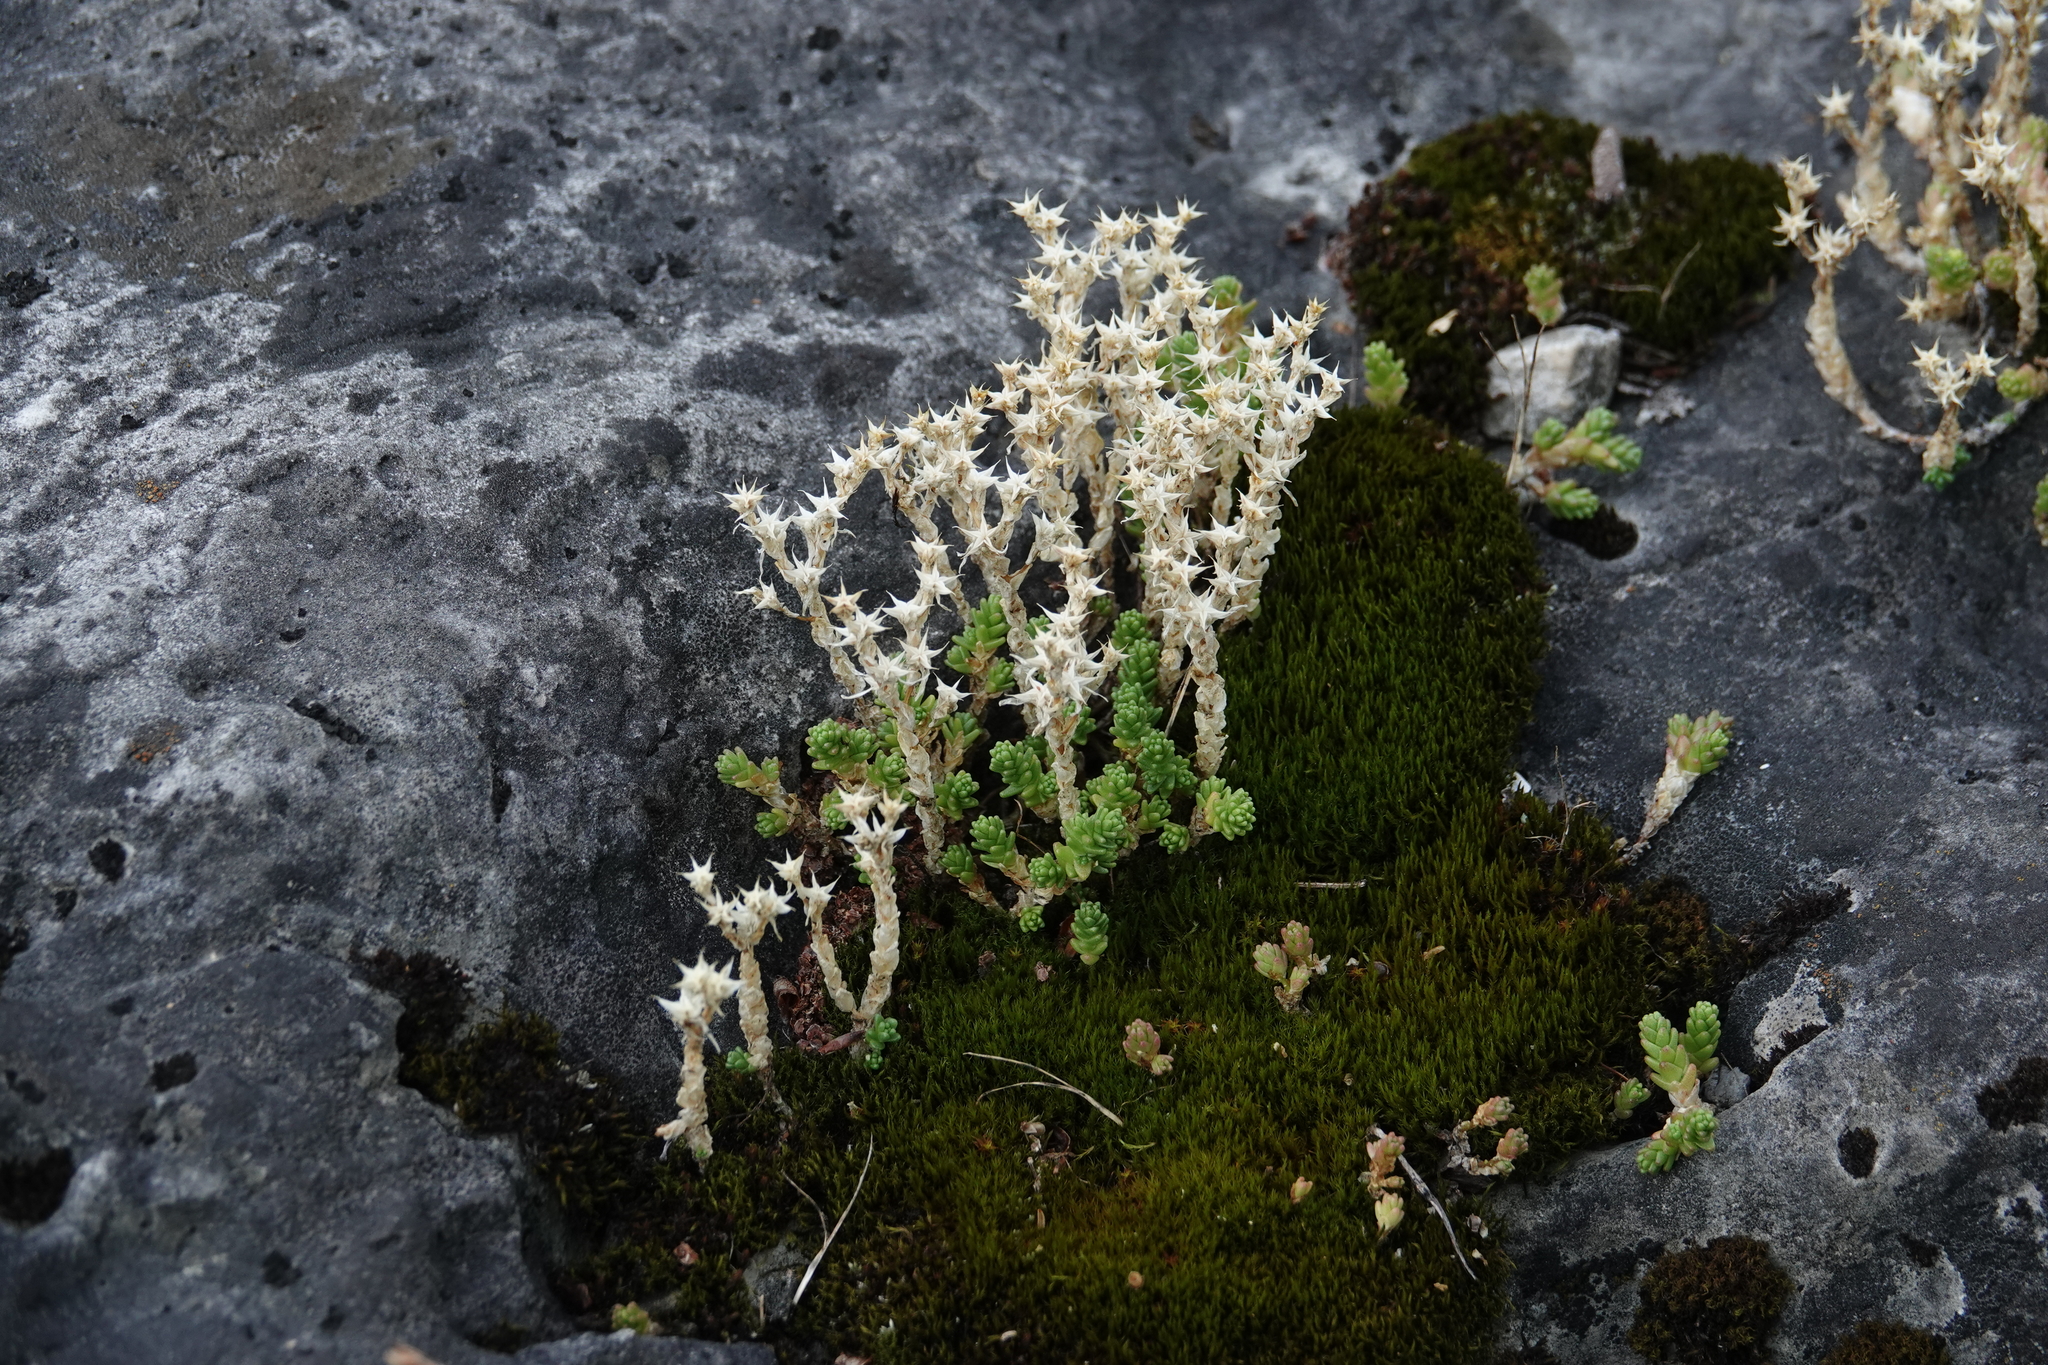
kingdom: Plantae
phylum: Tracheophyta
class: Magnoliopsida
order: Saxifragales
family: Crassulaceae
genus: Sedum
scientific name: Sedum acre
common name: Biting stonecrop
